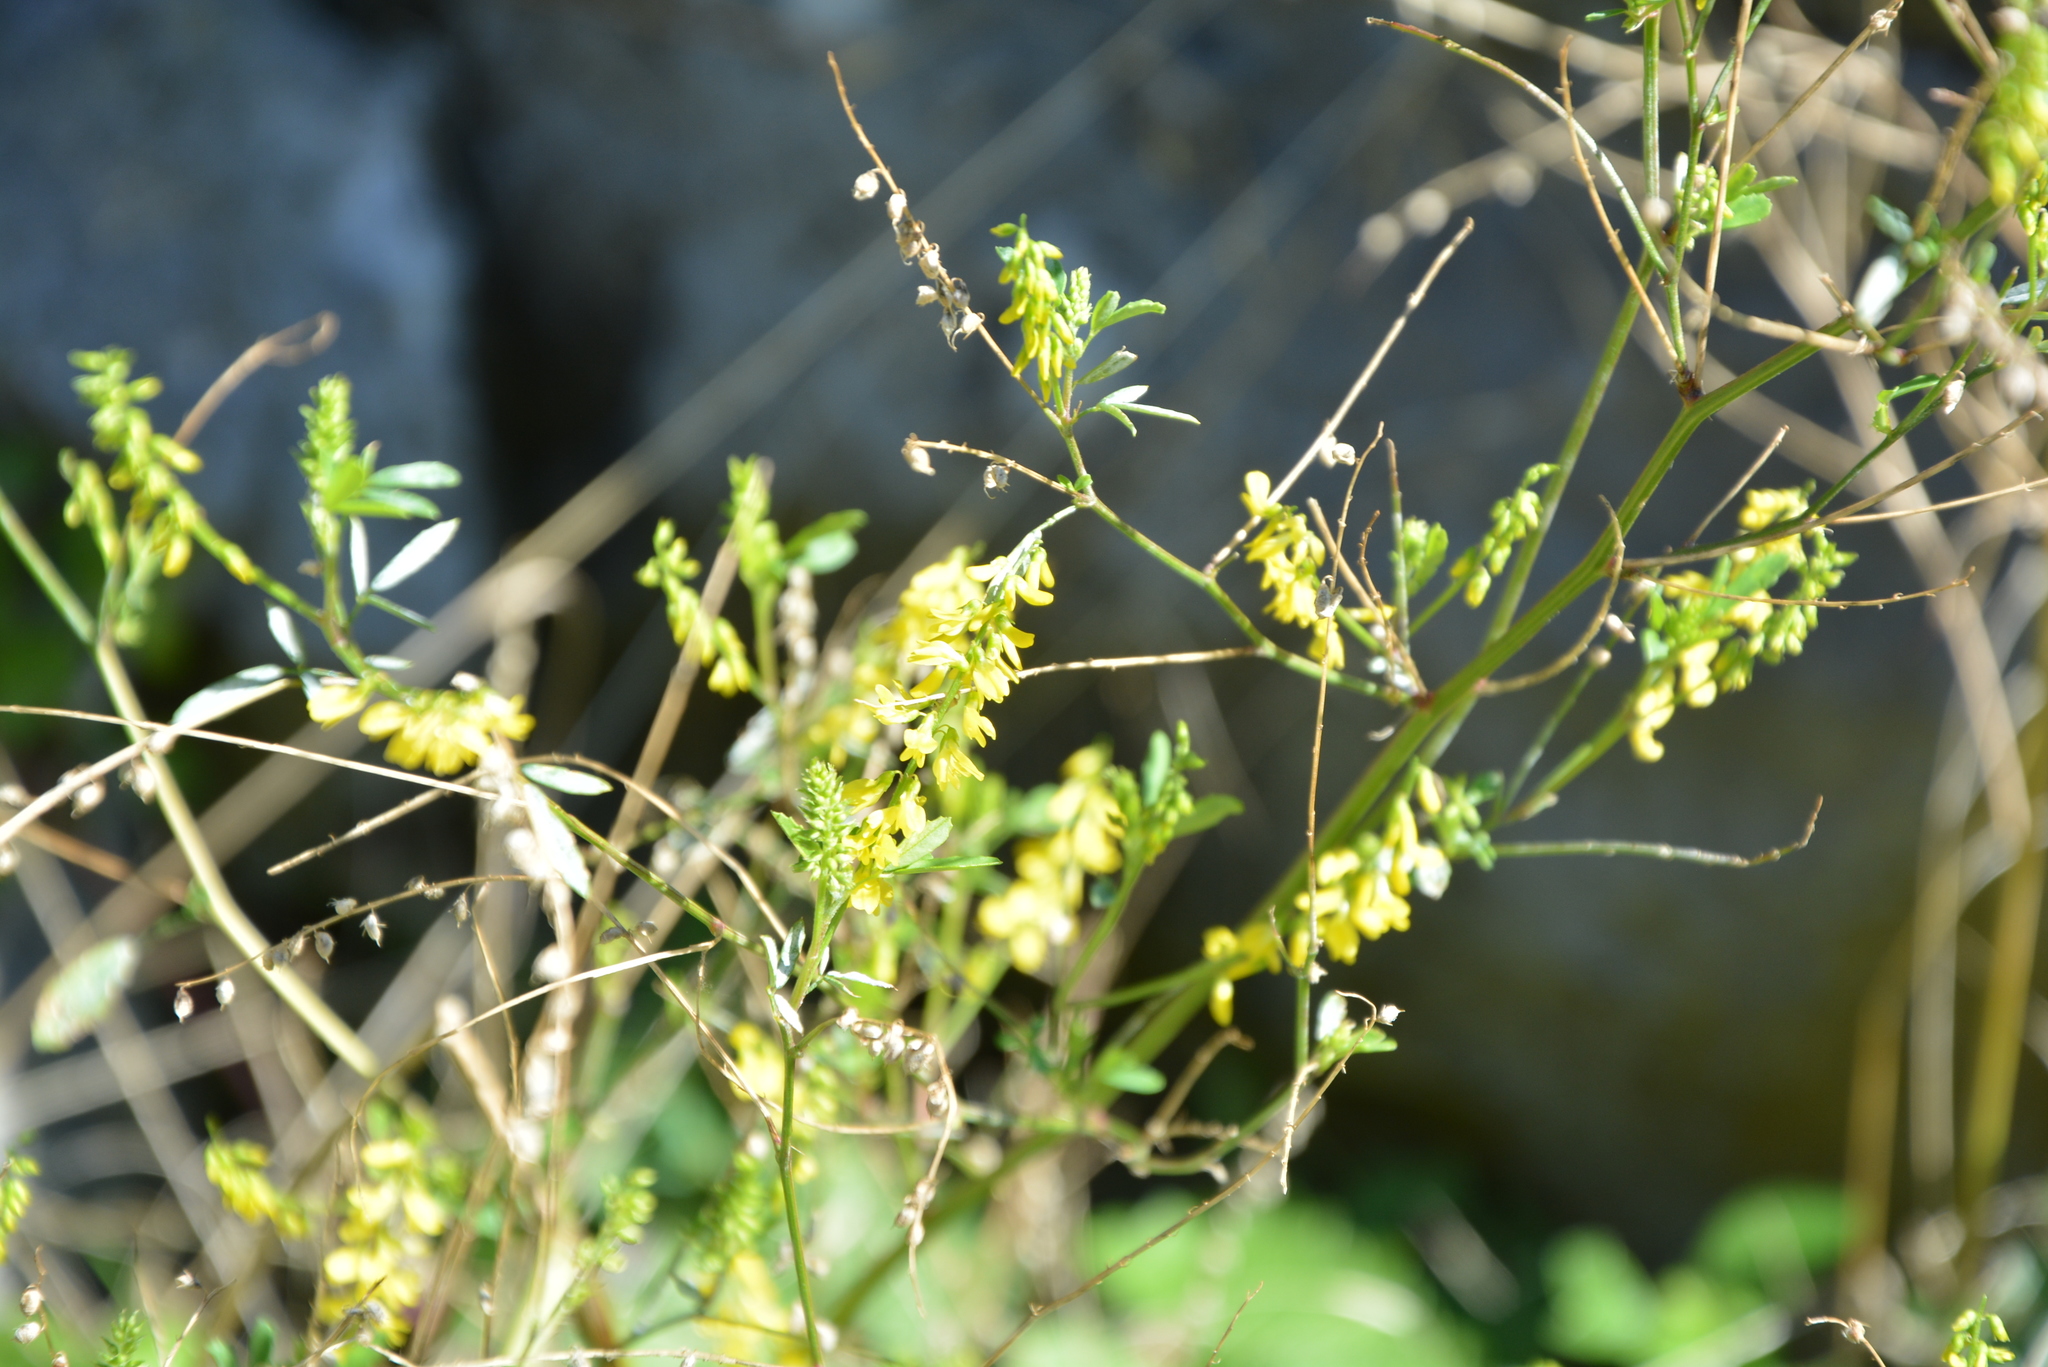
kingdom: Plantae
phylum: Tracheophyta
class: Magnoliopsida
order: Fabales
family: Fabaceae
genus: Melilotus
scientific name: Melilotus officinalis
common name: Sweetclover
